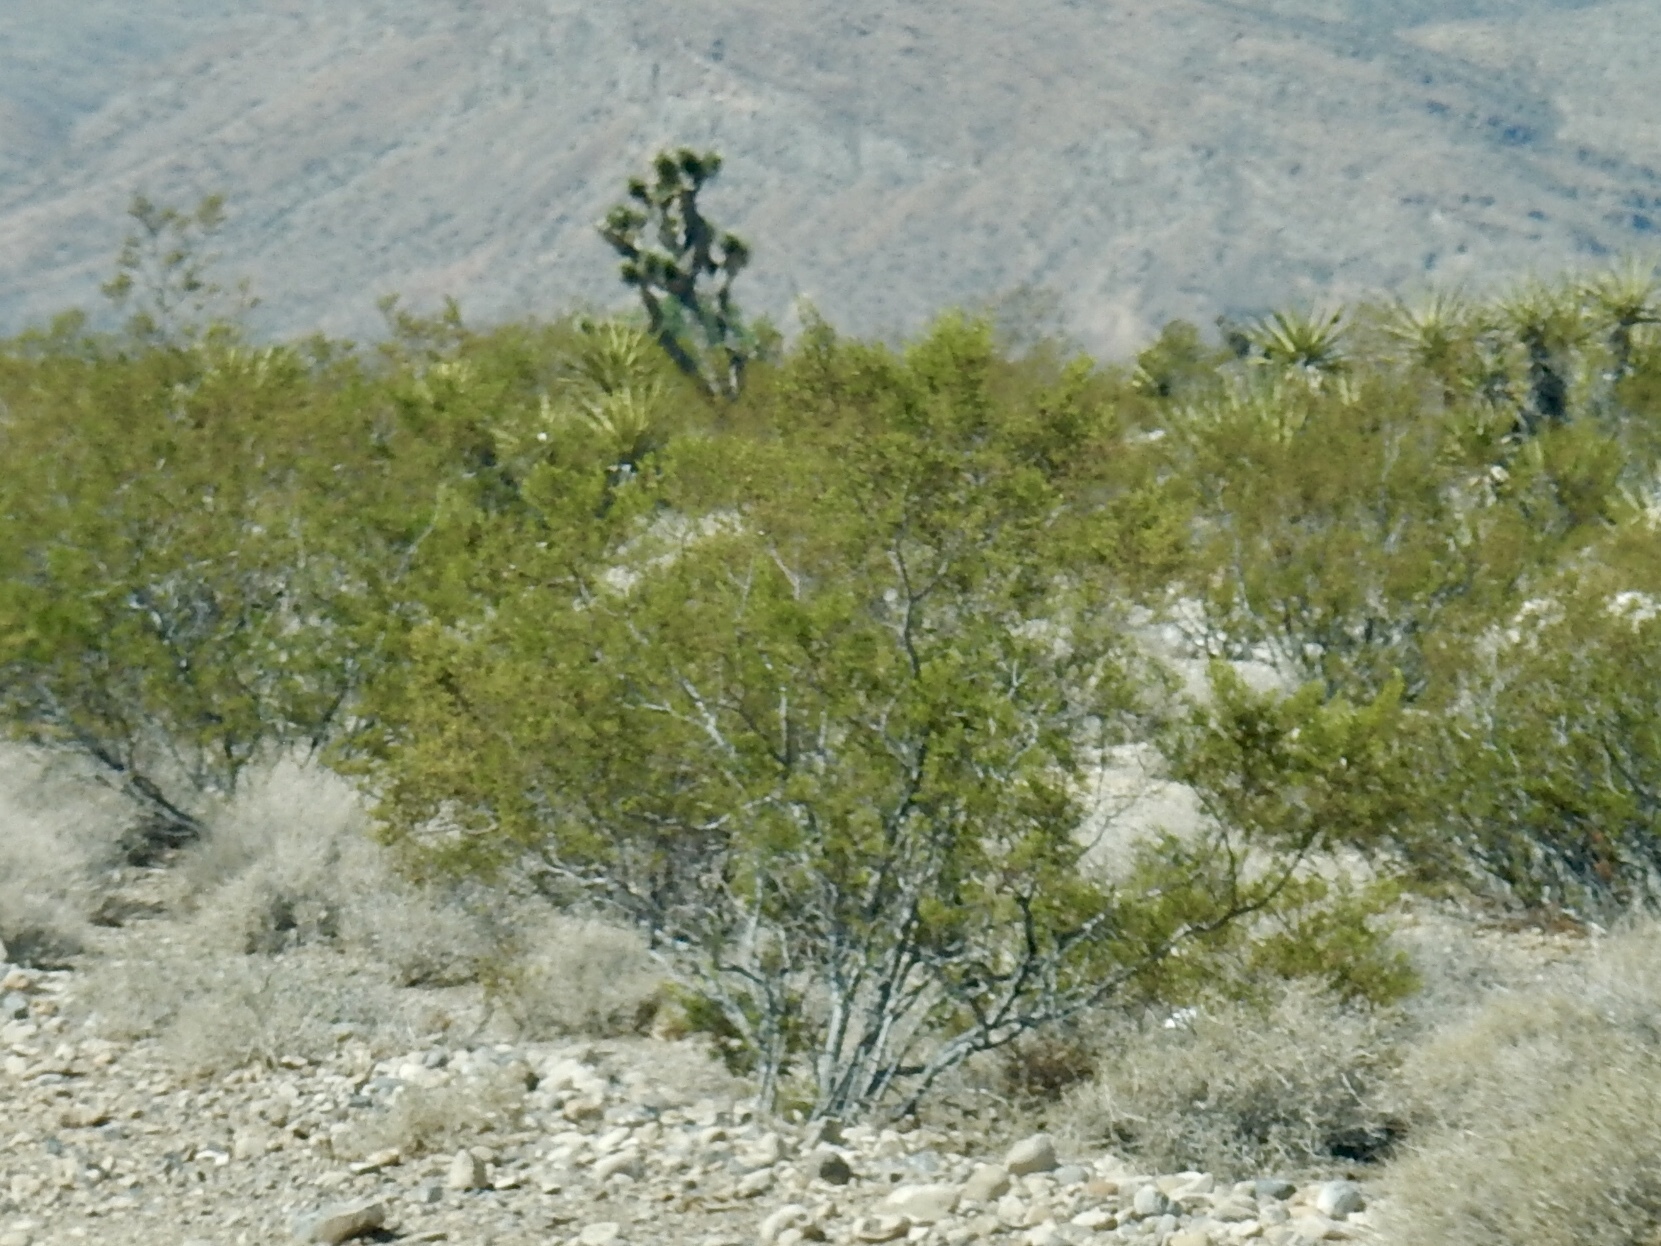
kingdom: Plantae
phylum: Tracheophyta
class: Magnoliopsida
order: Zygophyllales
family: Zygophyllaceae
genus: Larrea
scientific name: Larrea tridentata
